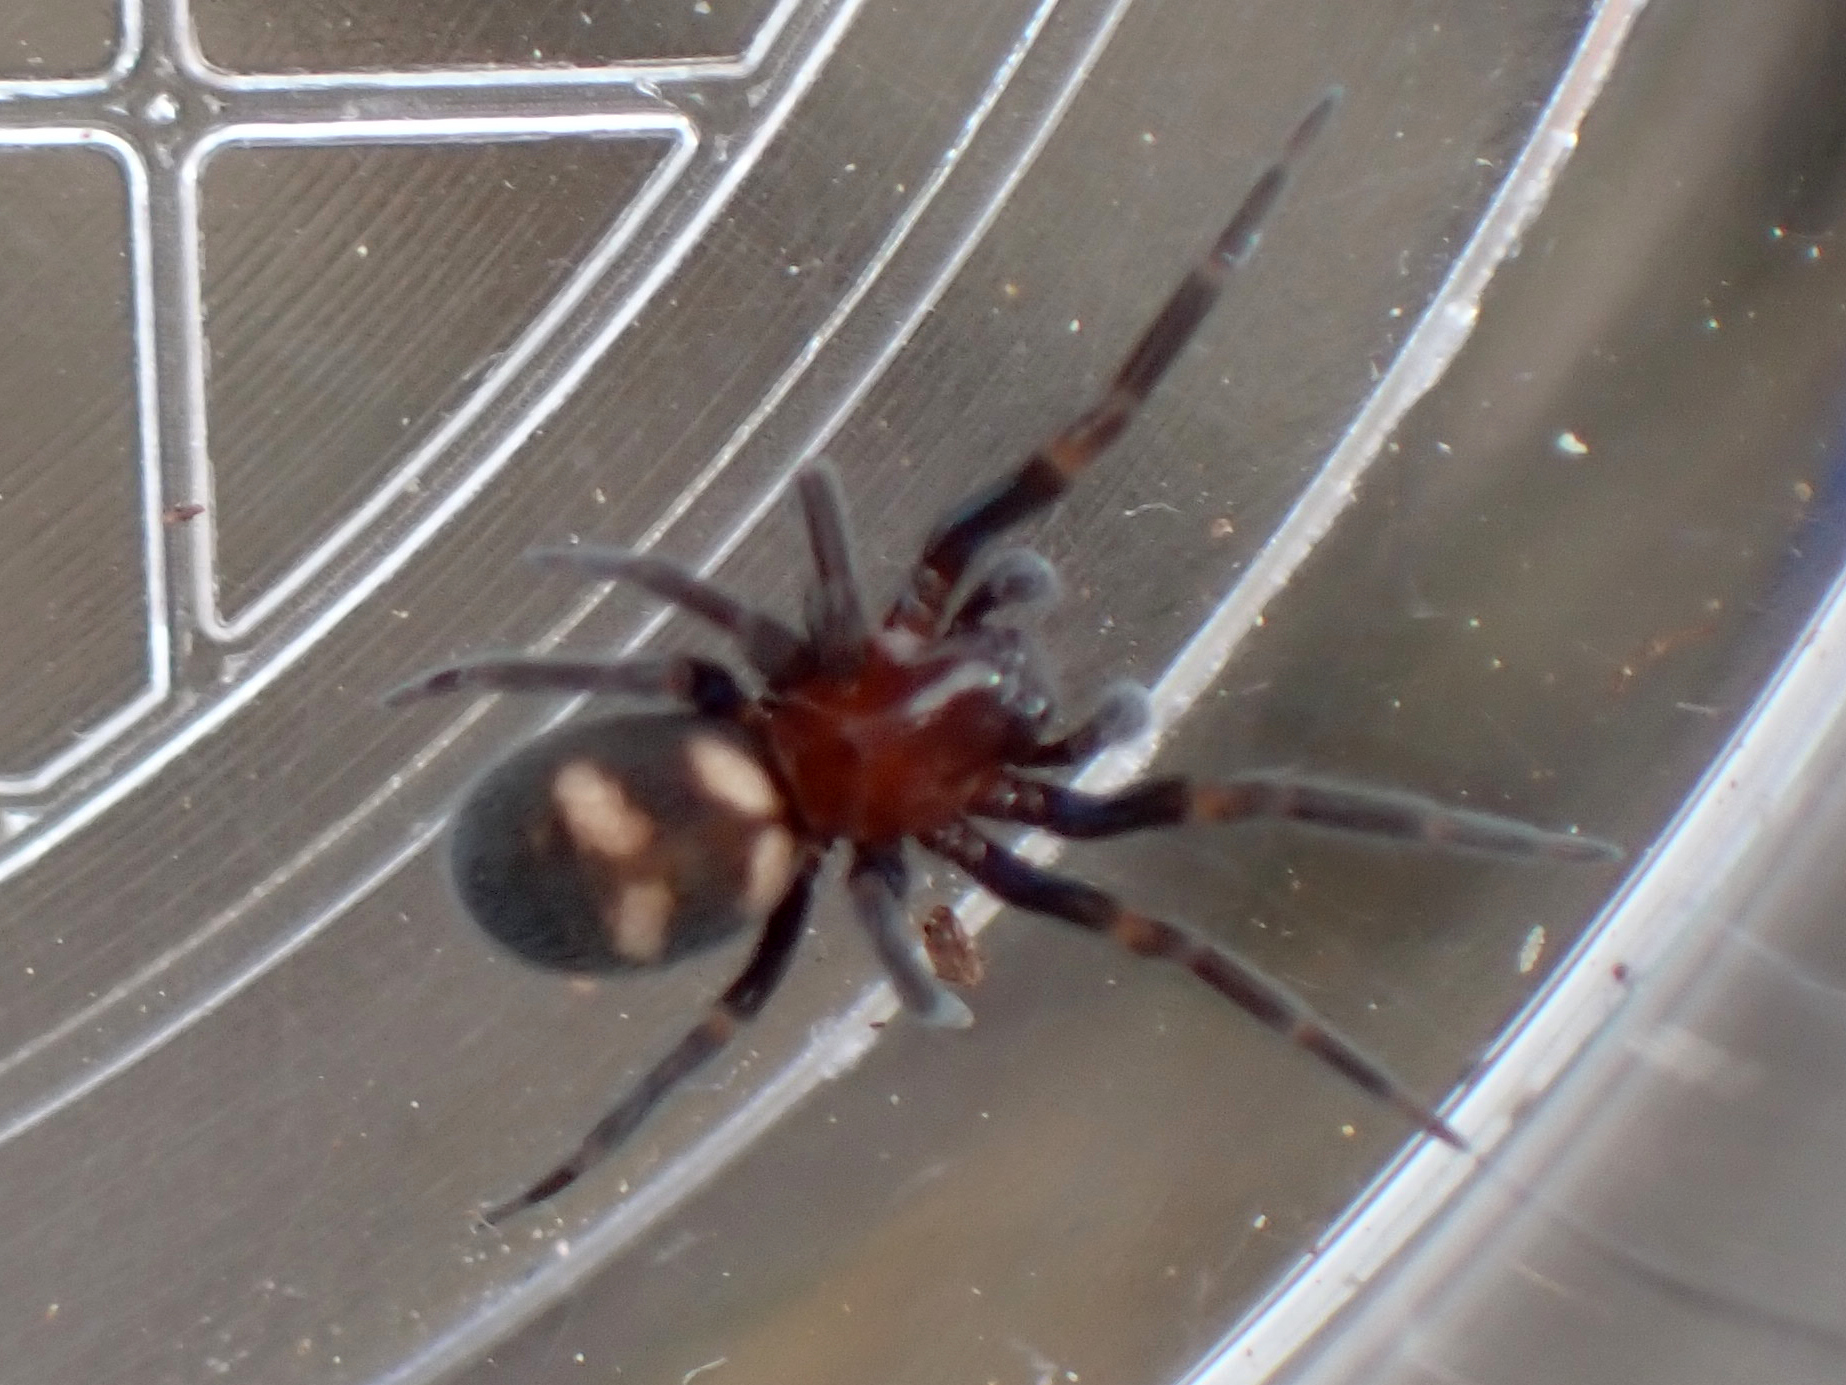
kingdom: Animalia
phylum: Arthropoda
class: Arachnida
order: Araneae
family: Titanoecidae
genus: Titanoeca
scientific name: Titanoeca quadriguttata
